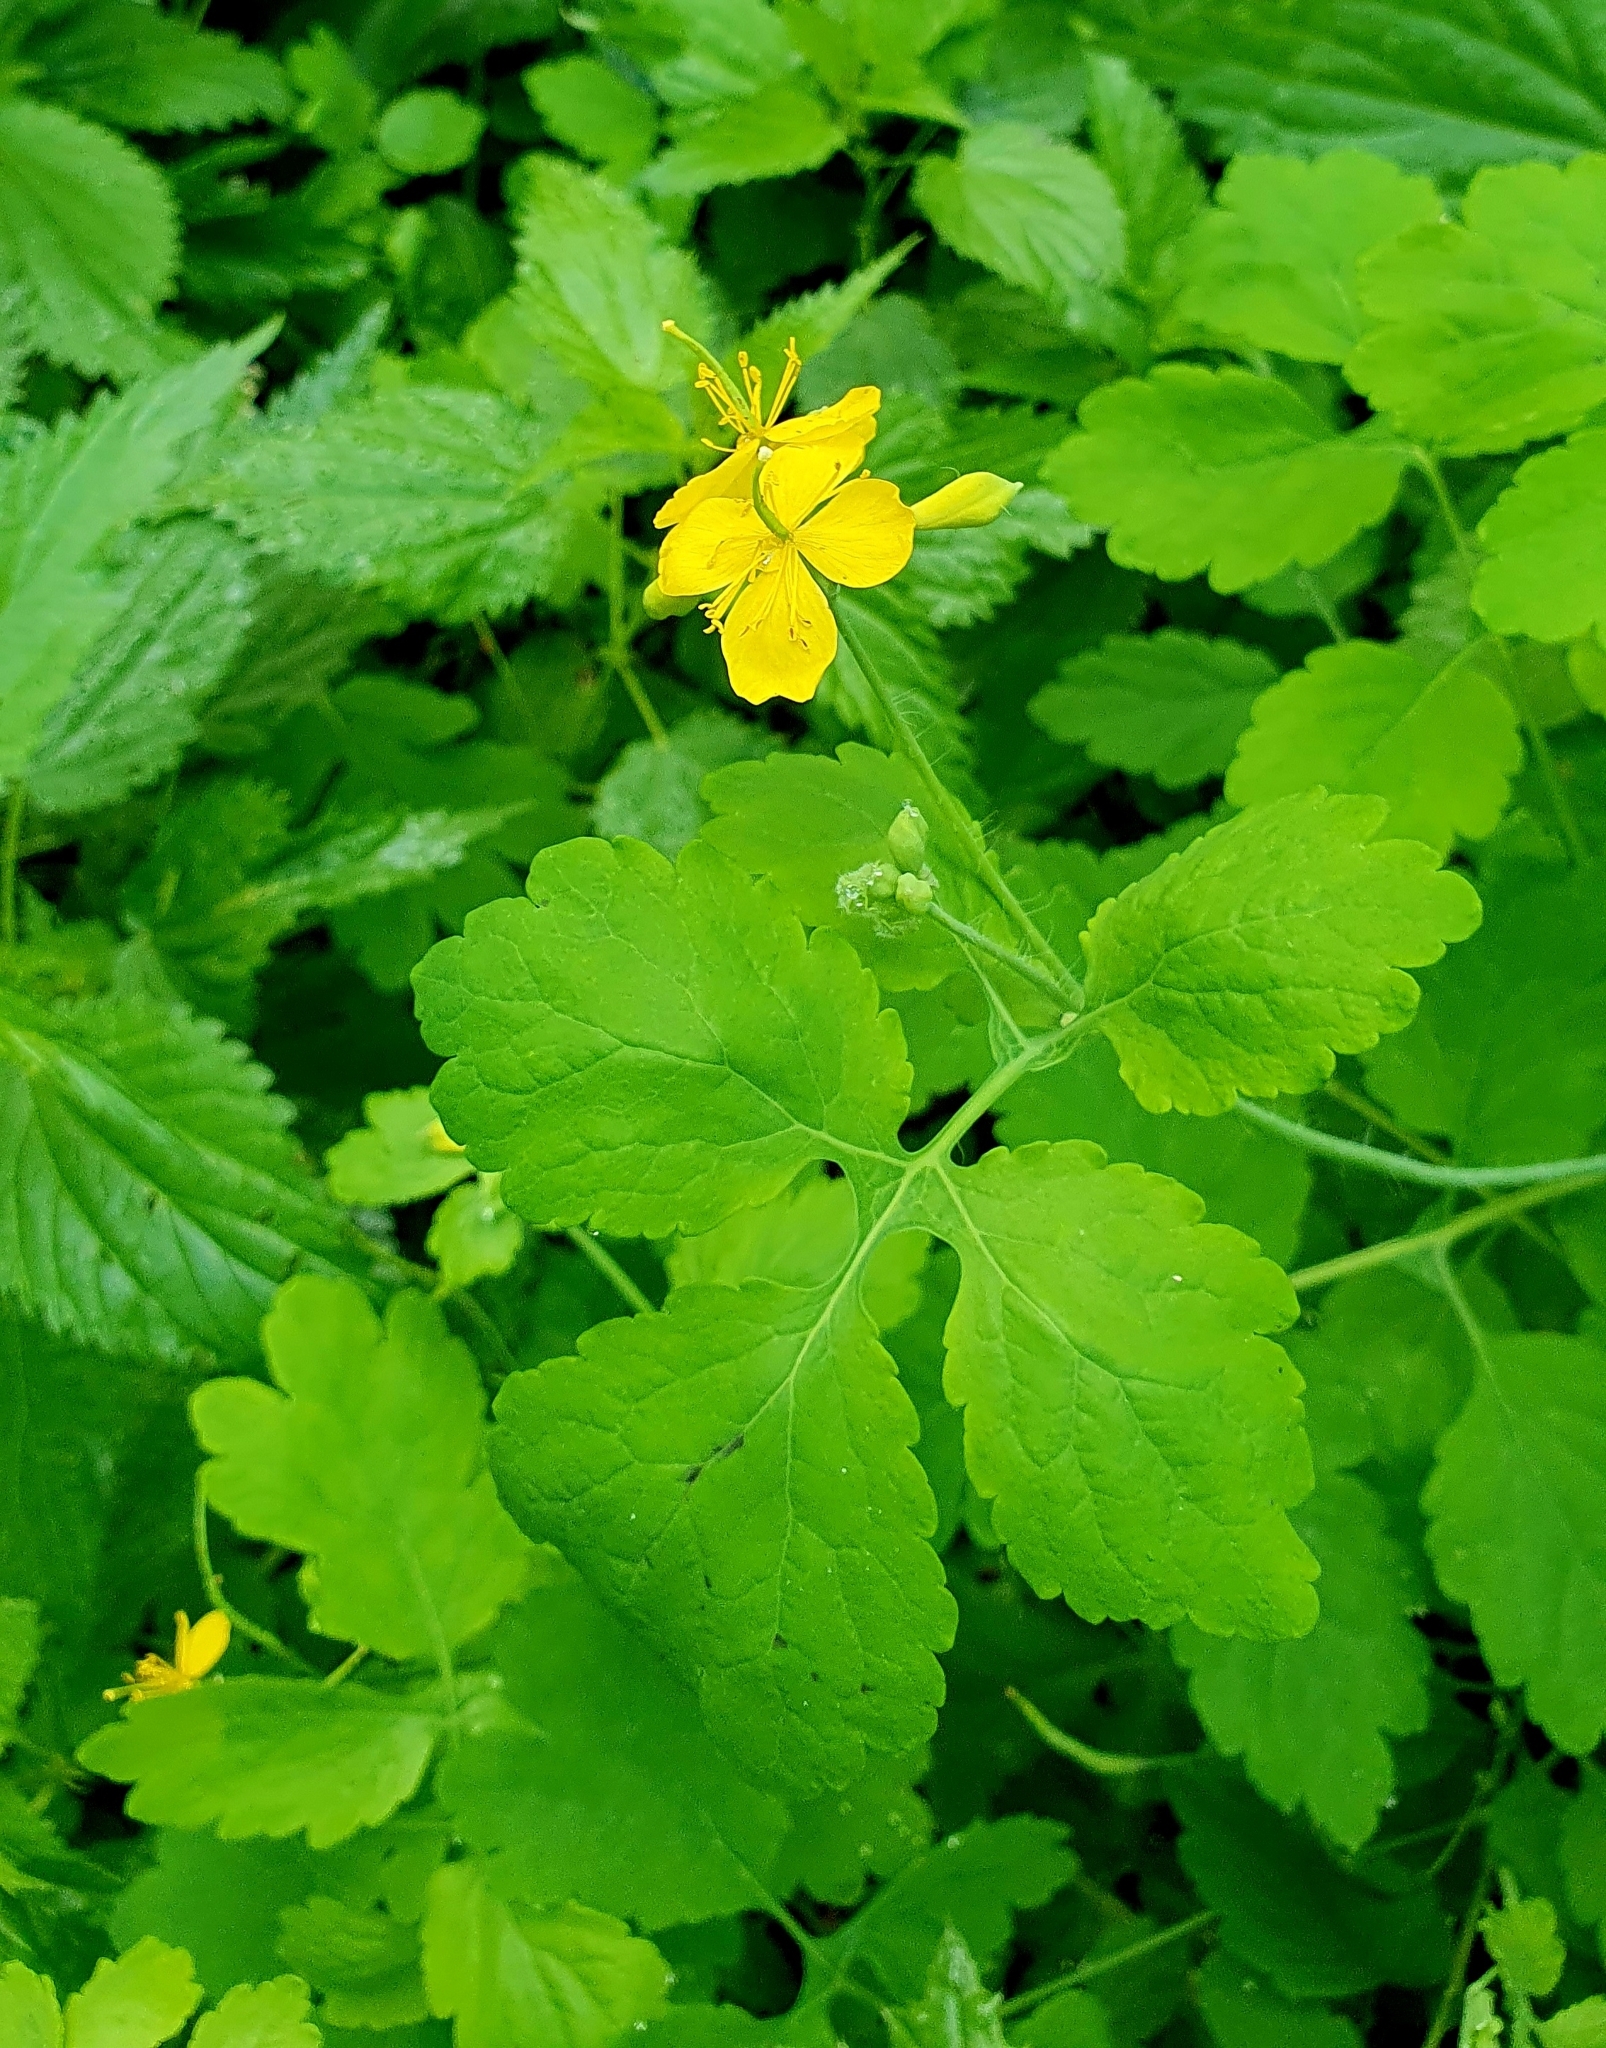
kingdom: Plantae
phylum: Tracheophyta
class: Magnoliopsida
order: Ranunculales
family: Papaveraceae
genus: Chelidonium
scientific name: Chelidonium majus
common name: Greater celandine
